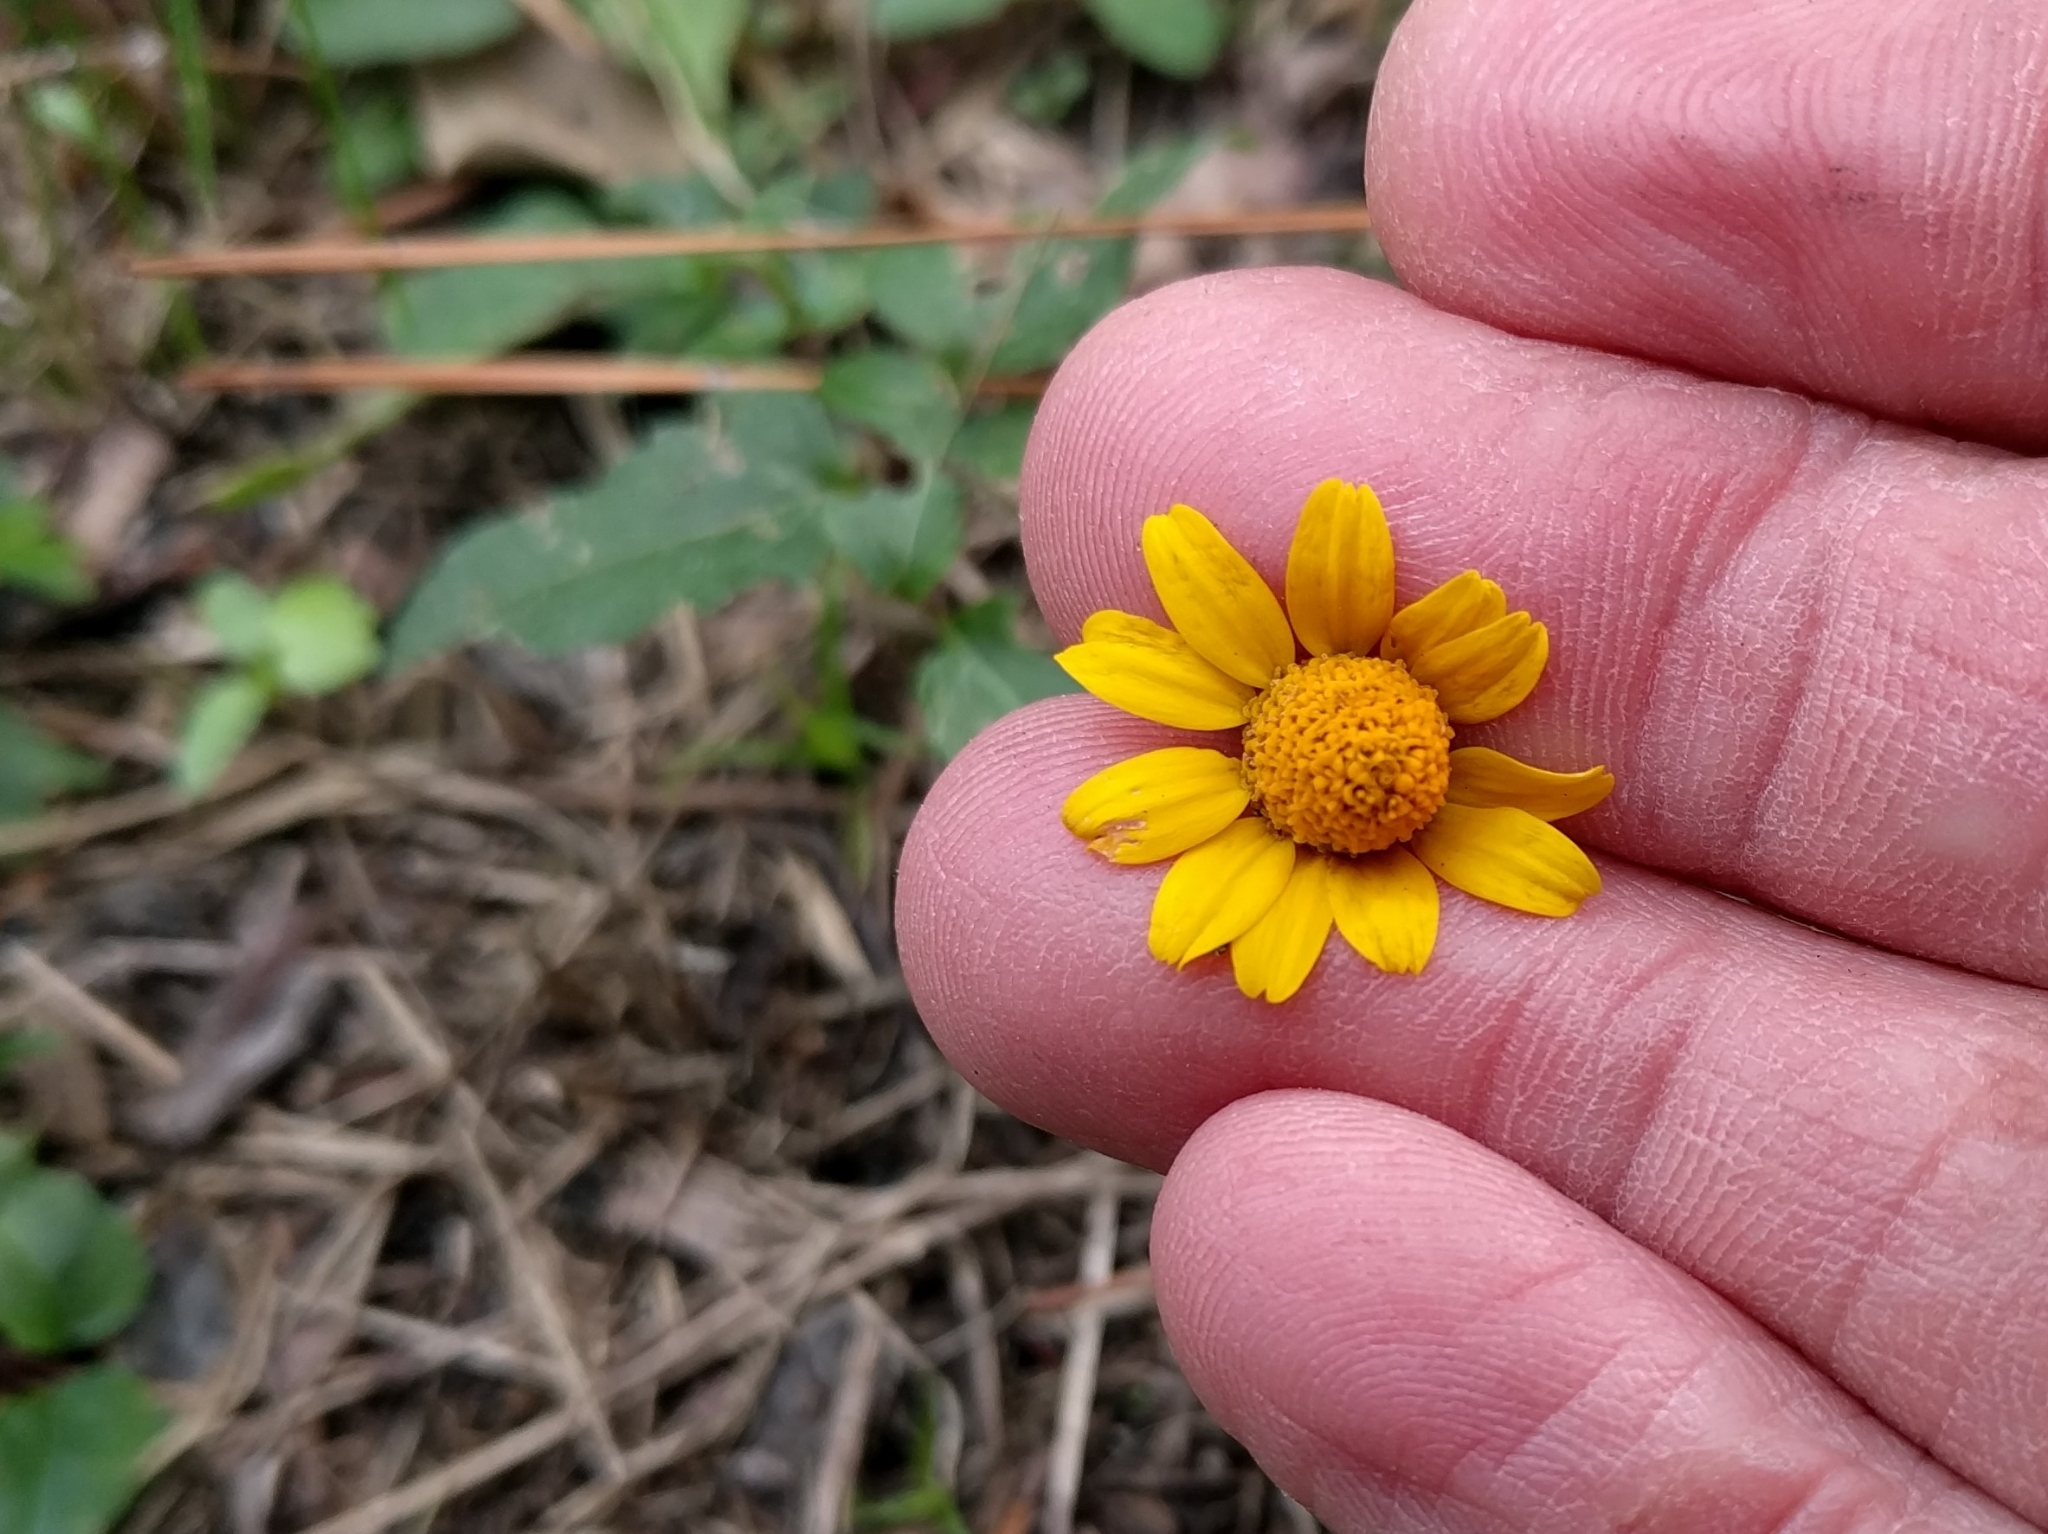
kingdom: Plantae
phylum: Tracheophyta
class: Magnoliopsida
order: Asterales
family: Asteraceae
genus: Acmella
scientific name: Acmella repens
